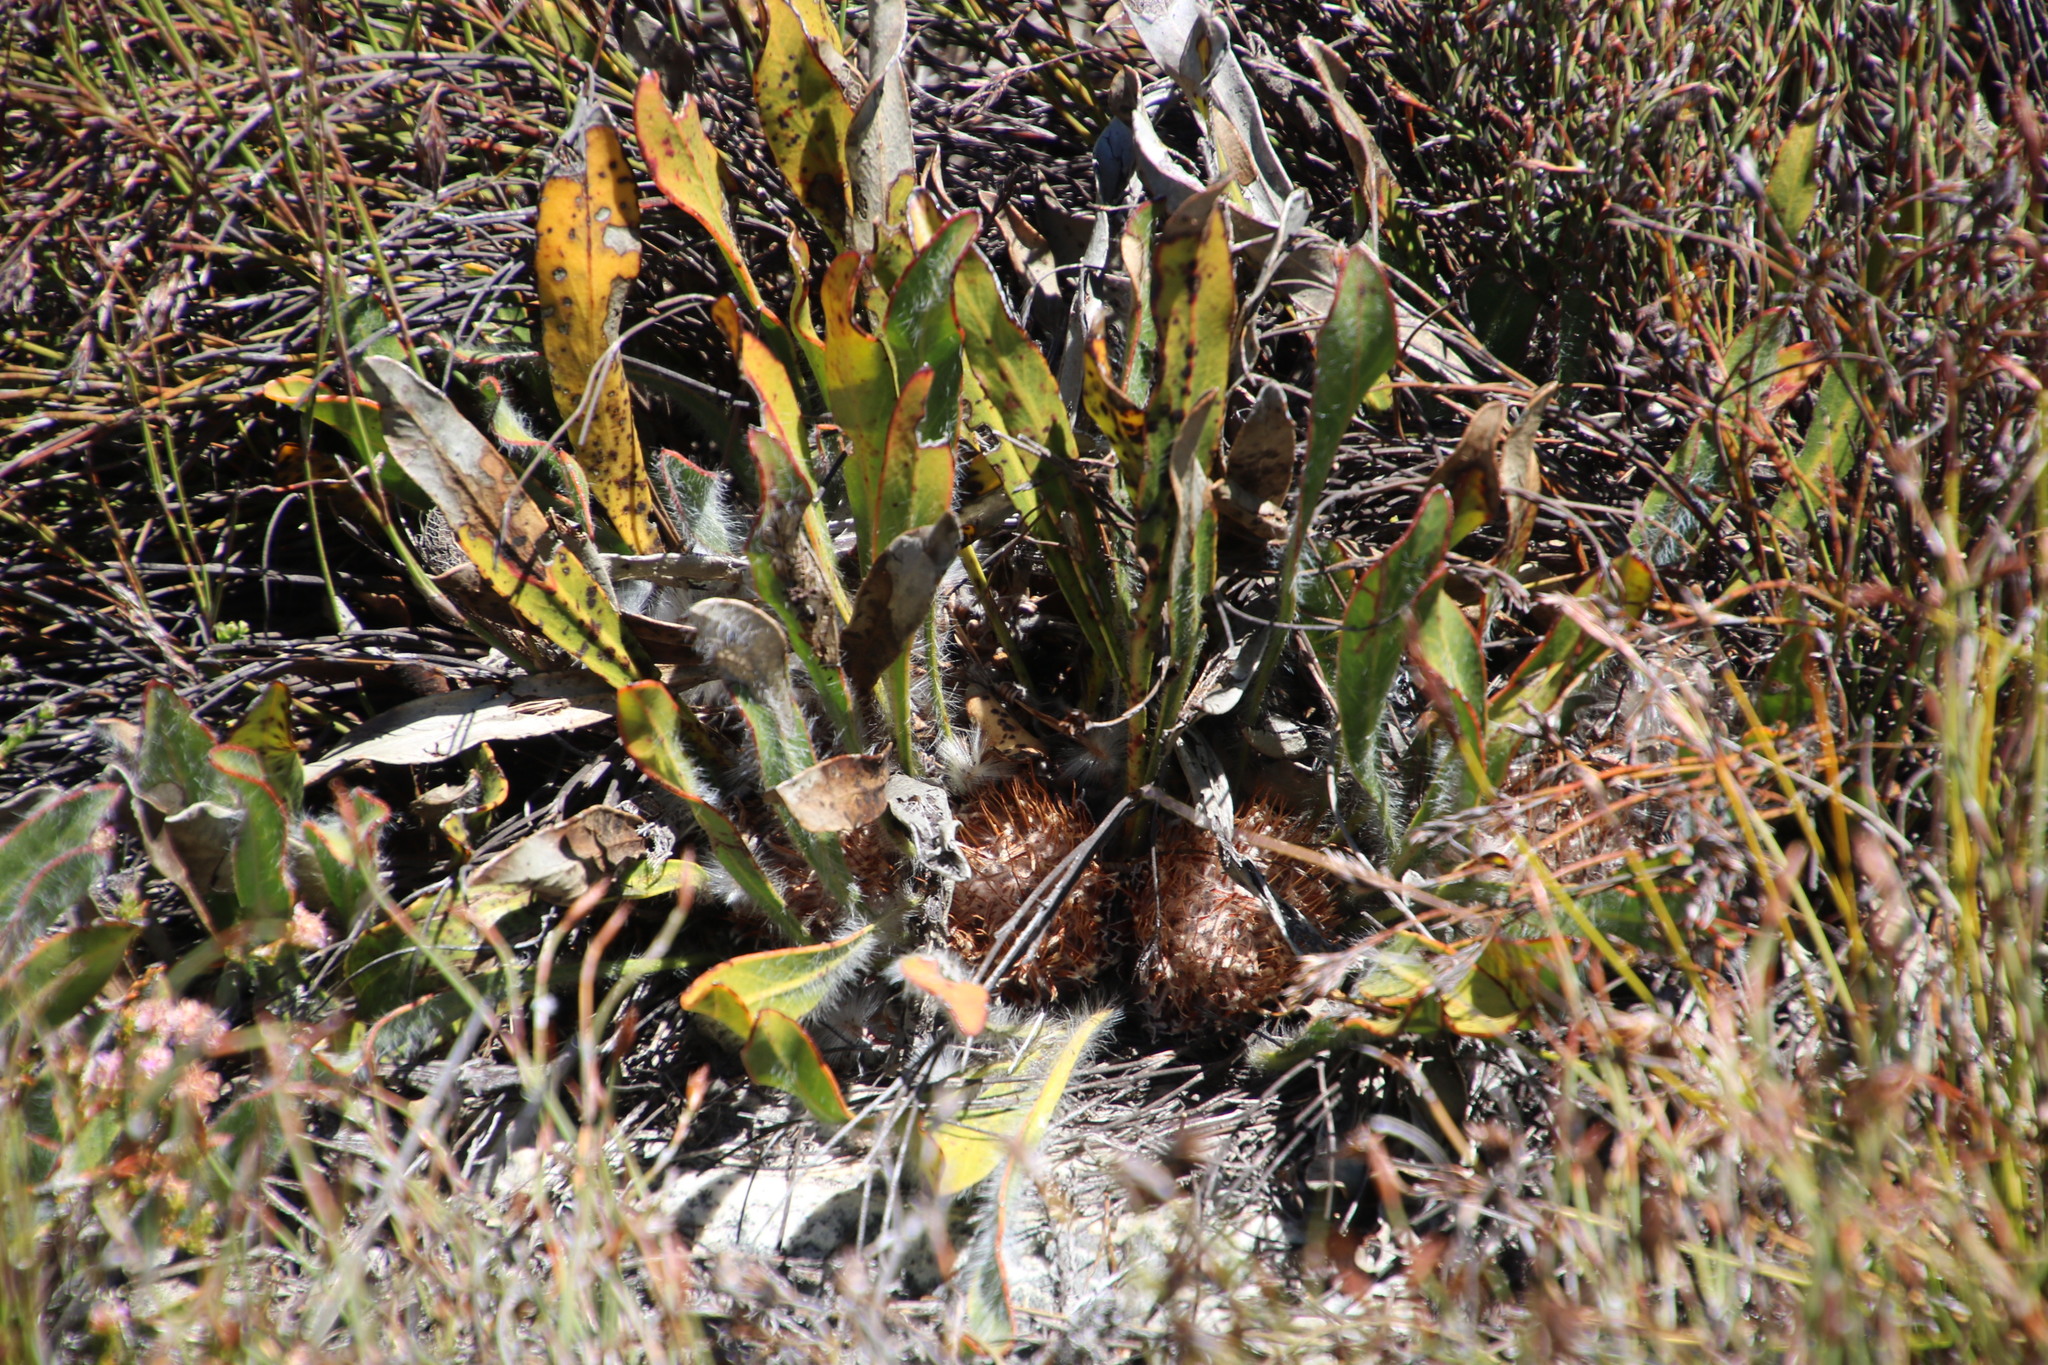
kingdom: Plantae
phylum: Tracheophyta
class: Magnoliopsida
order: Proteales
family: Proteaceae
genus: Protea
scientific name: Protea scabriuscula
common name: Hoary sugarbush
